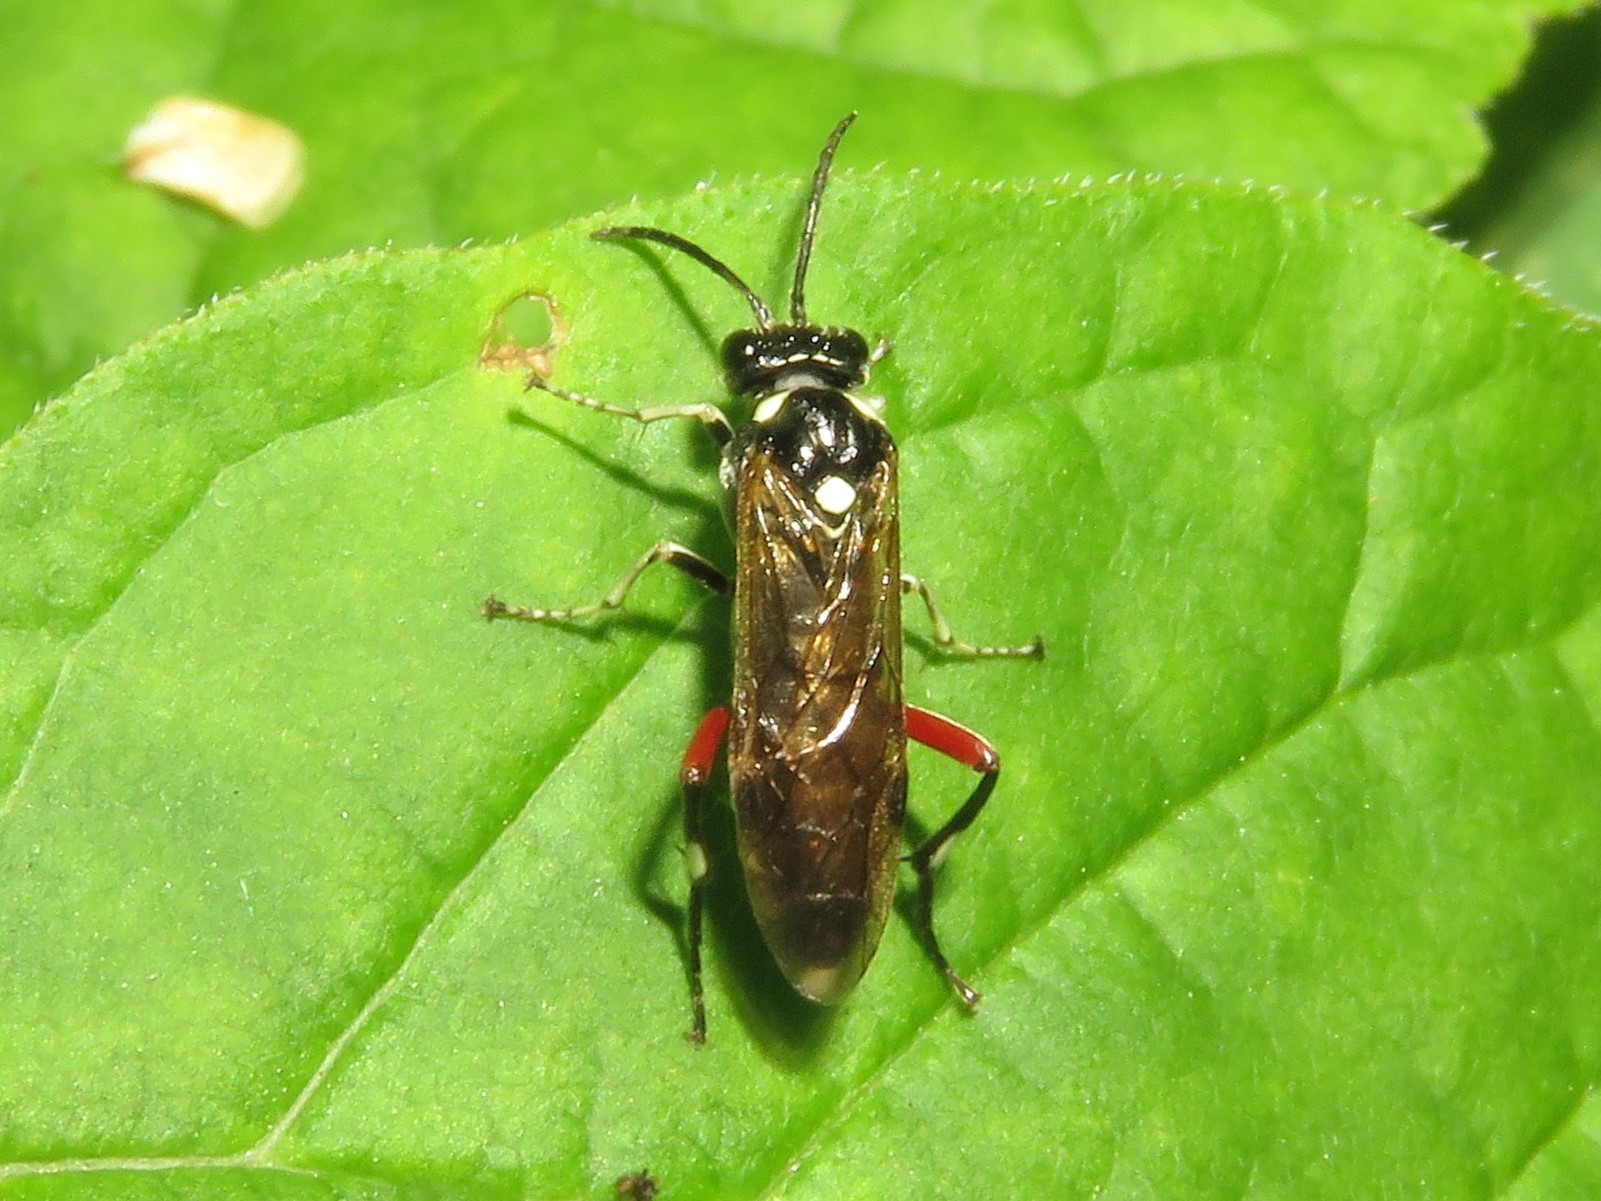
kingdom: Animalia
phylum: Arthropoda
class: Insecta
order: Hymenoptera
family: Tenthredinidae
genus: Macrophya
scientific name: Macrophya punctumalbum
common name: Sawfly
